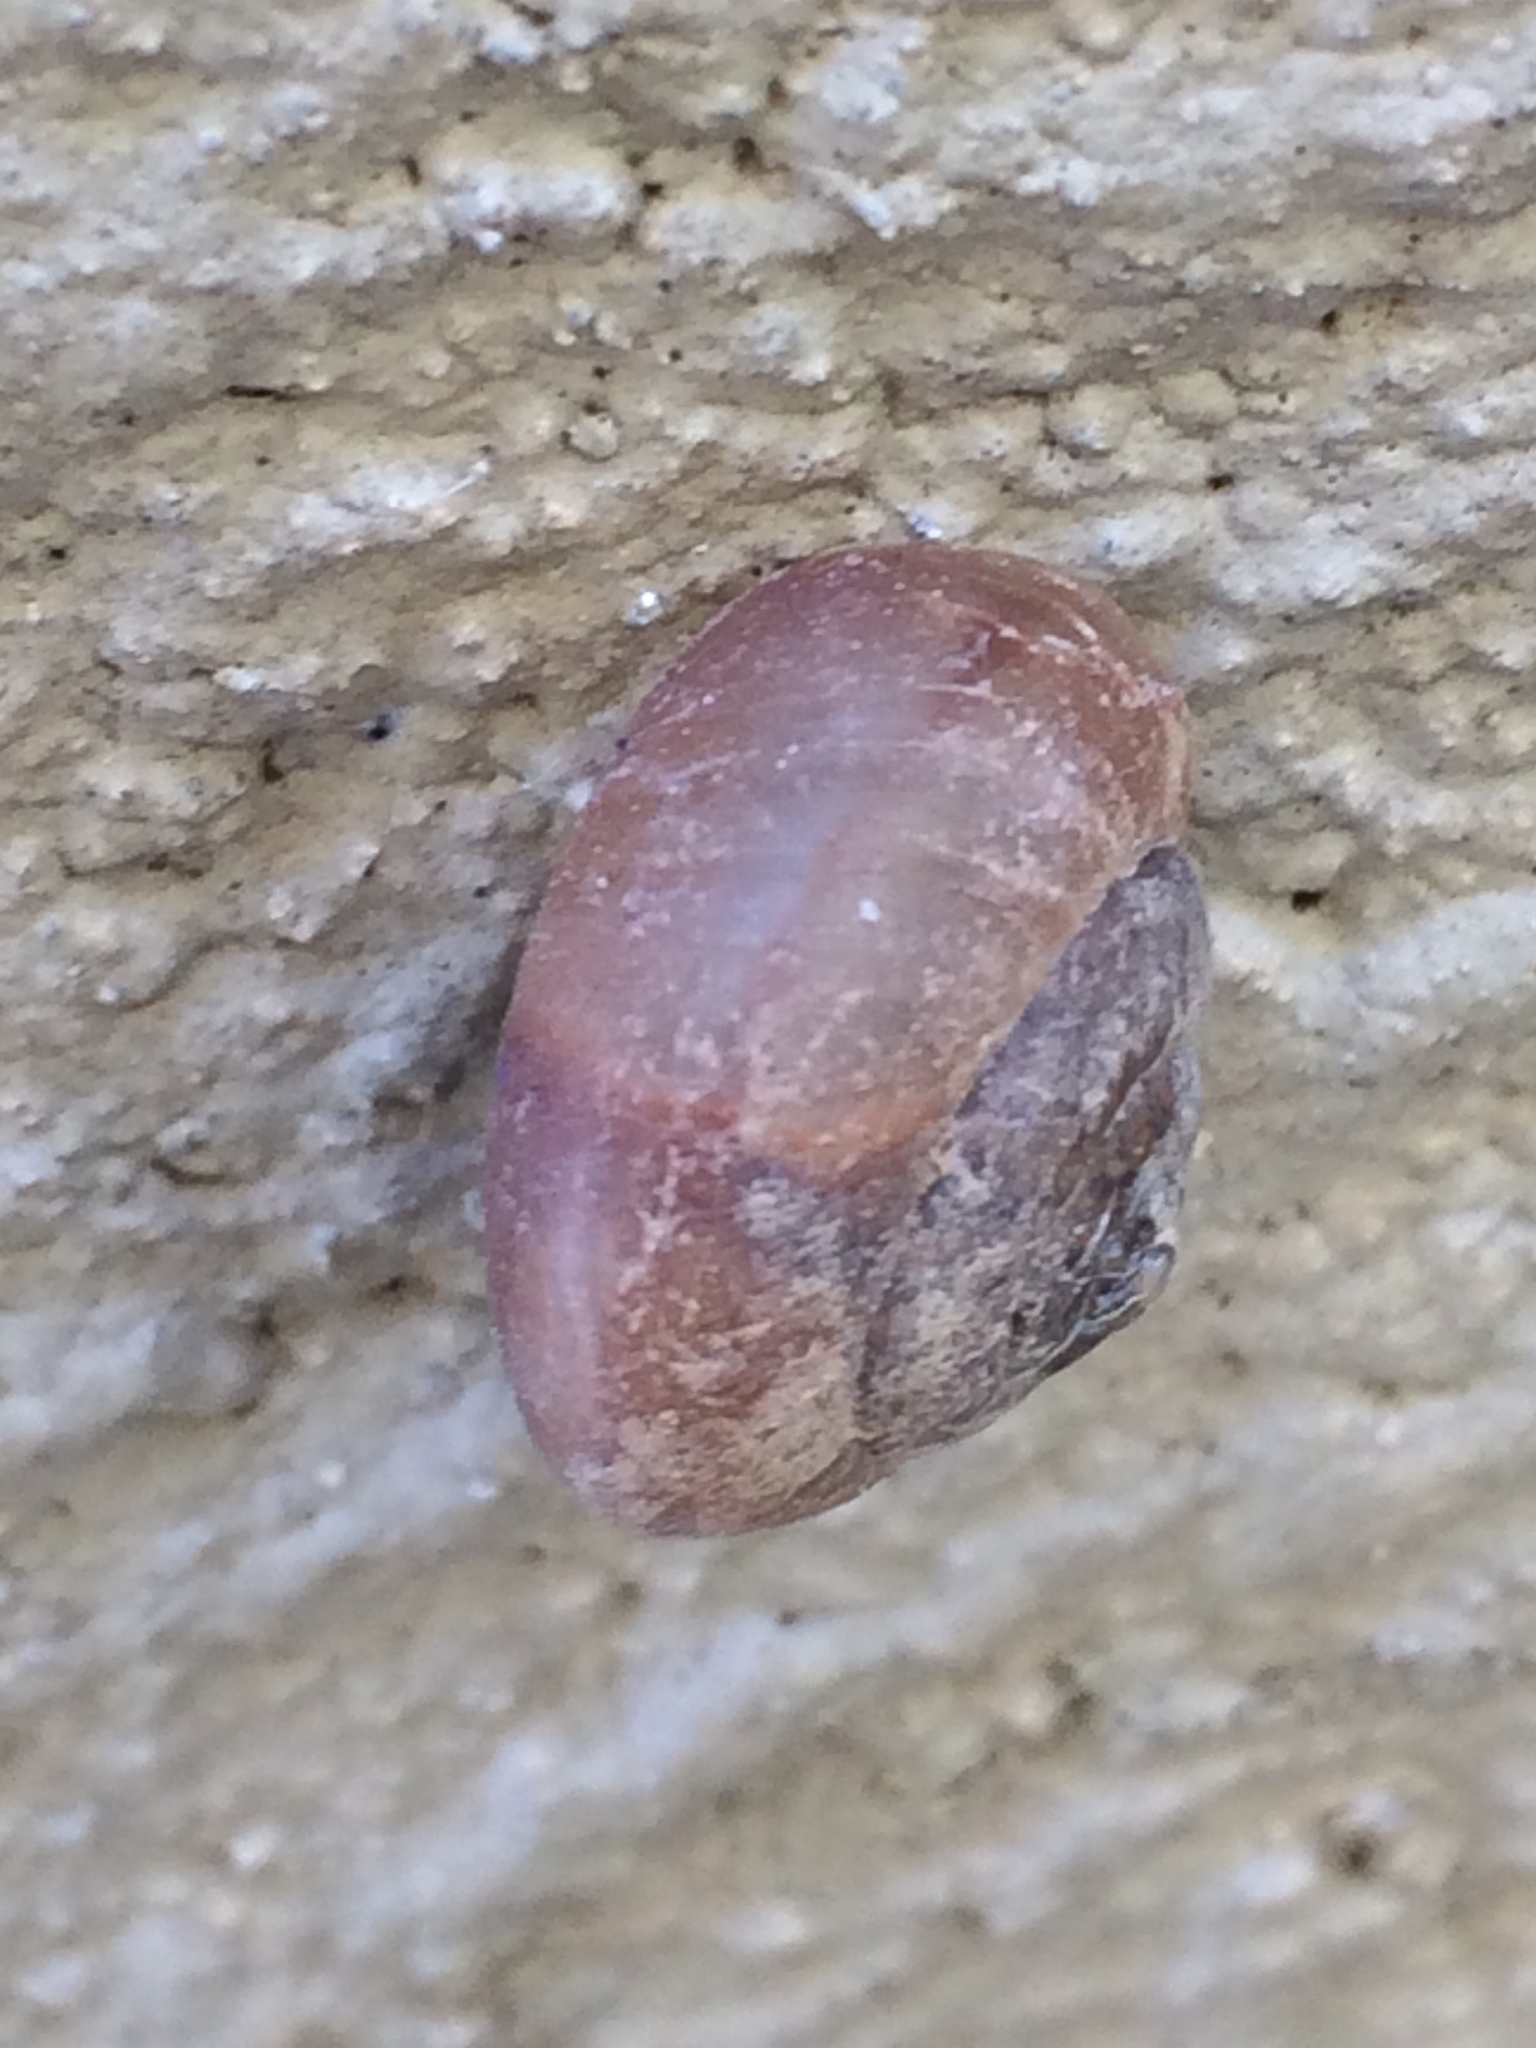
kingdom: Animalia
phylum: Mollusca
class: Gastropoda
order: Stylommatophora
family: Camaenidae
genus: Bradybaena
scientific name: Bradybaena similaris
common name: Asian trampsnail
